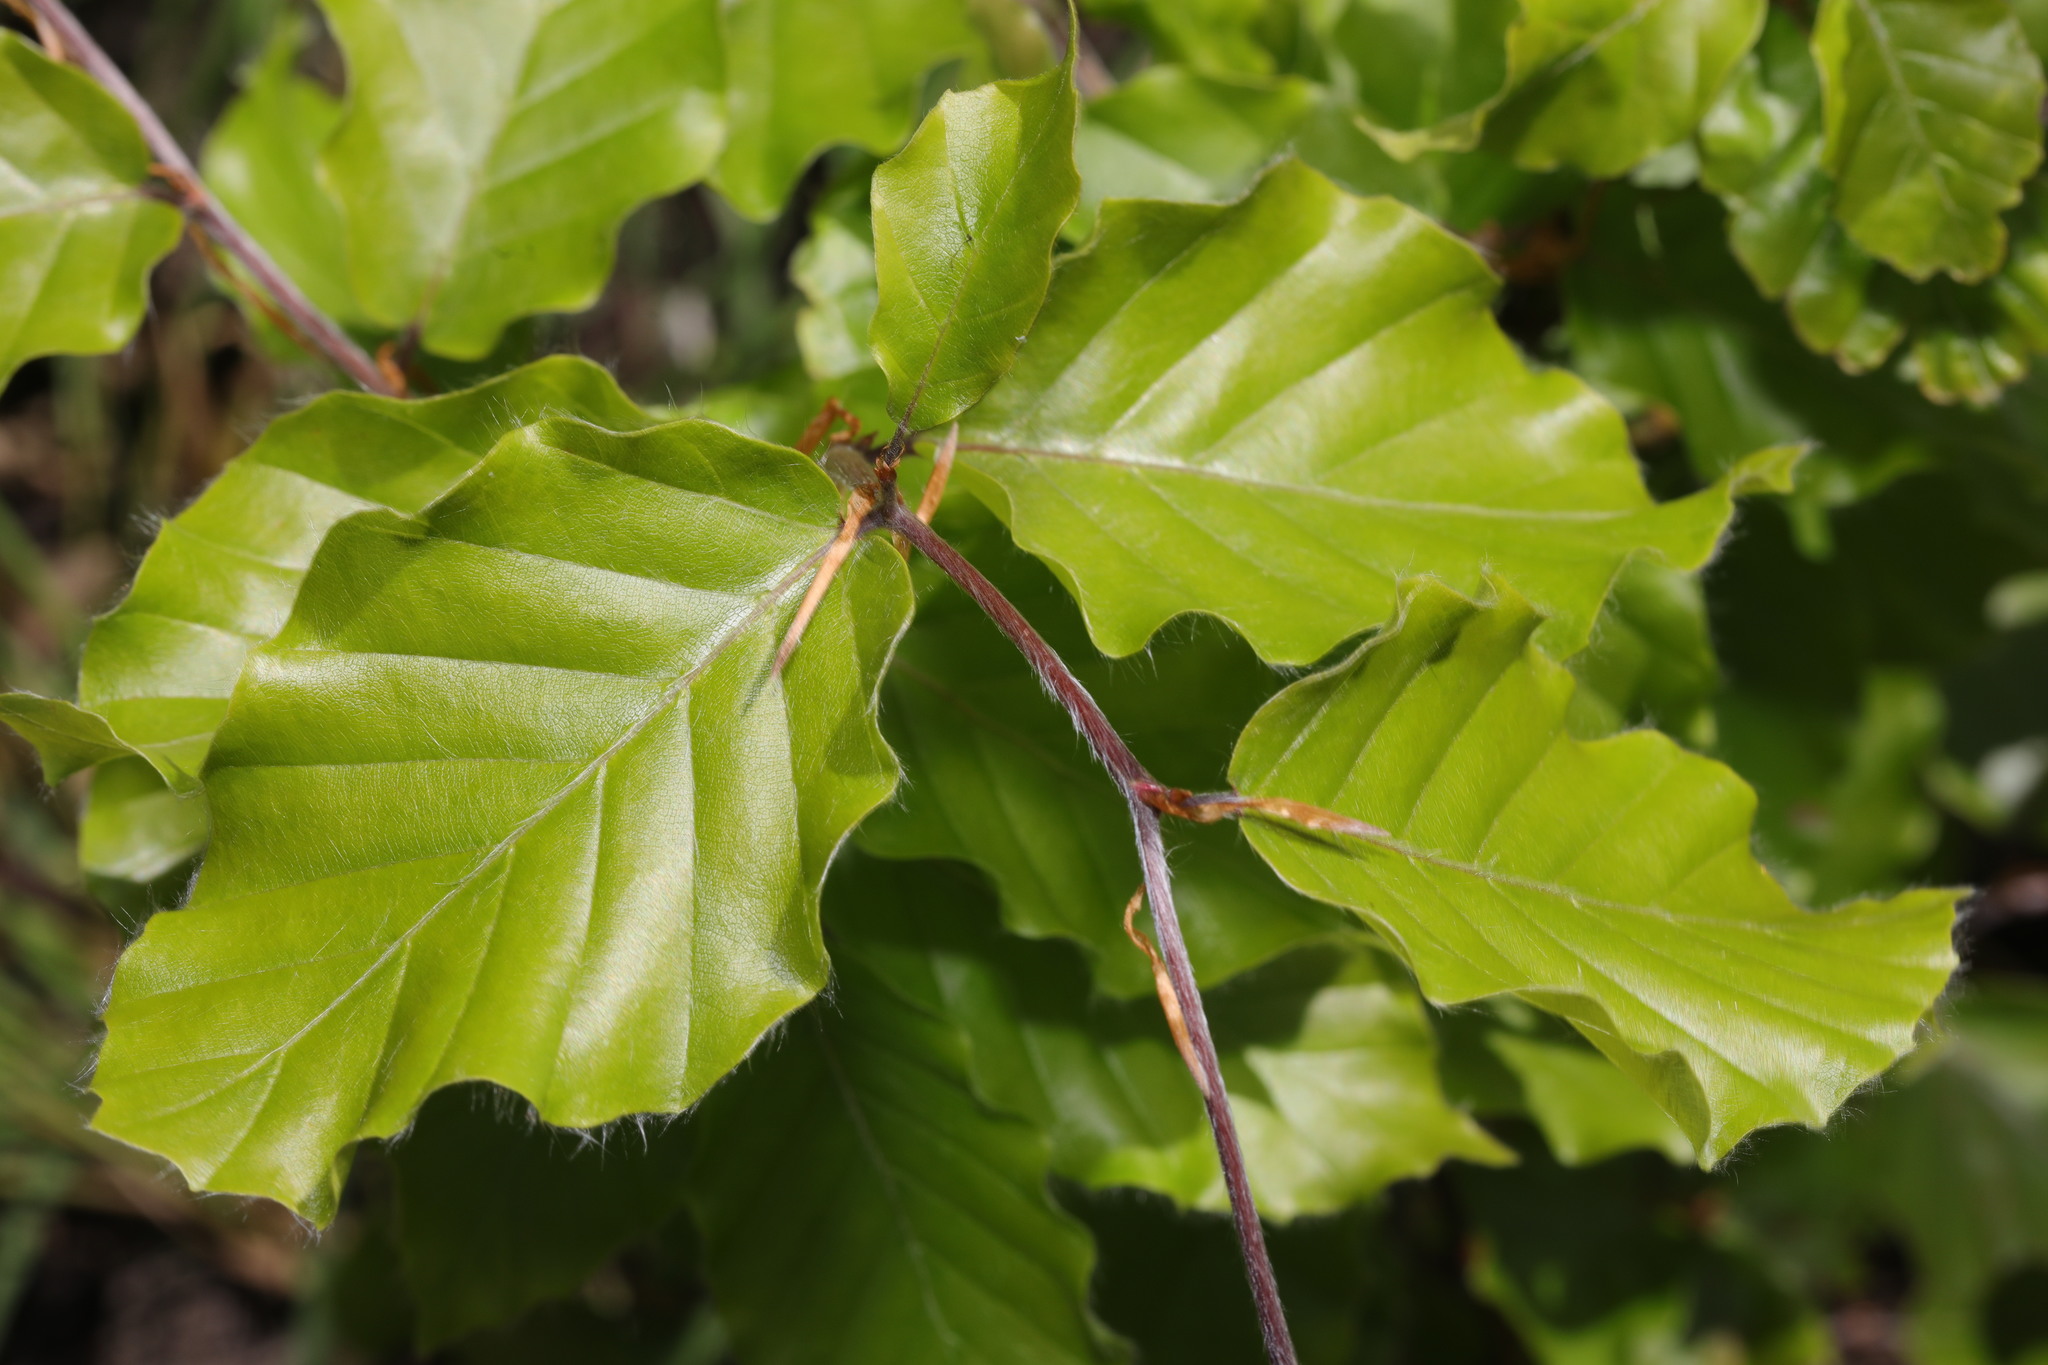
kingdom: Plantae
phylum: Tracheophyta
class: Magnoliopsida
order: Fagales
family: Fagaceae
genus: Fagus
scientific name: Fagus sylvatica
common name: Beech
